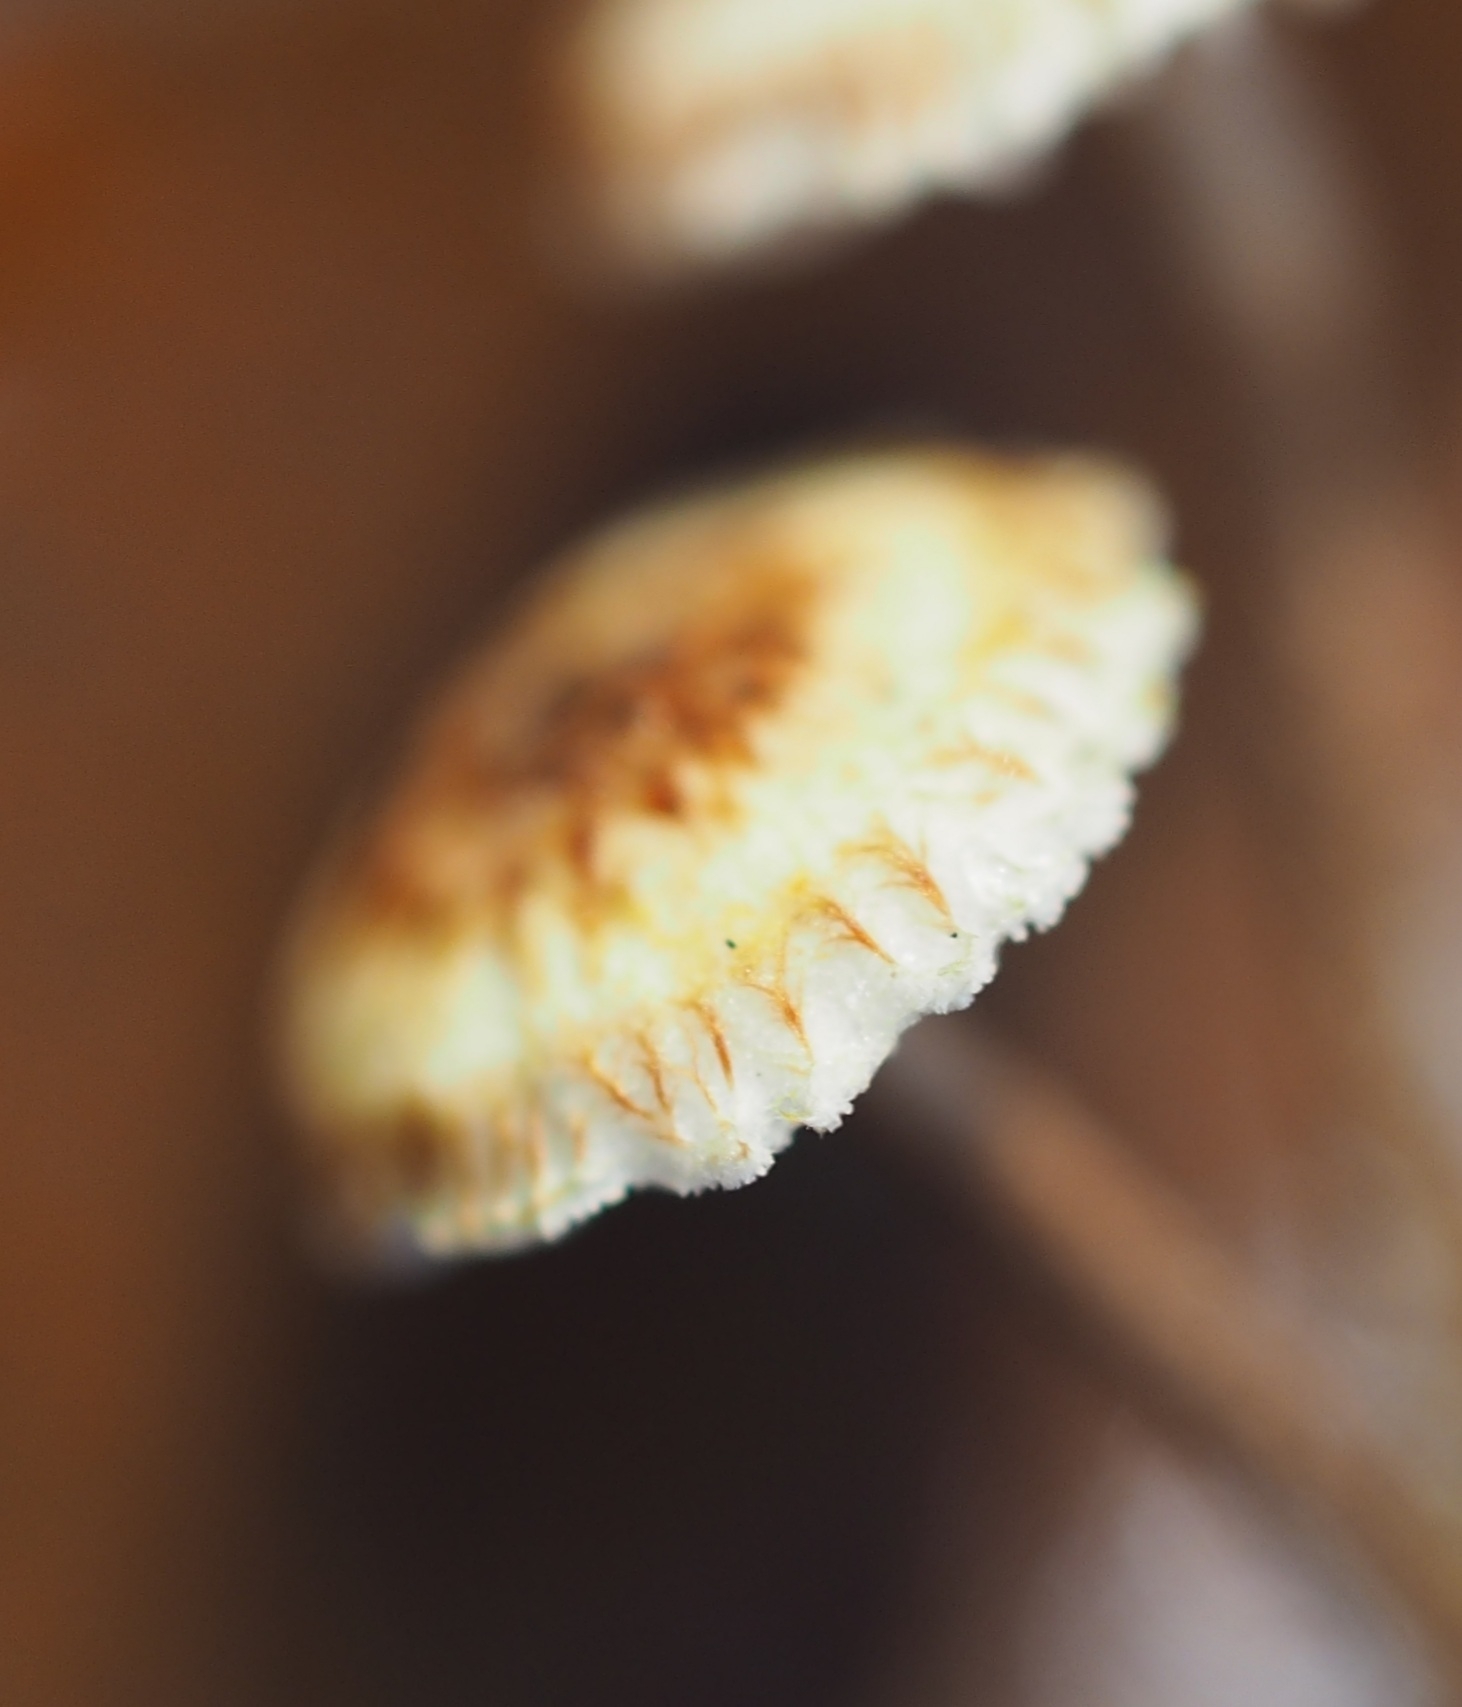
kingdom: Fungi
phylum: Basidiomycota
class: Agaricomycetes
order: Agaricales
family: Marasmiaceae
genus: Crinipellis
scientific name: Crinipellis scabella
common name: Hairy parachute
